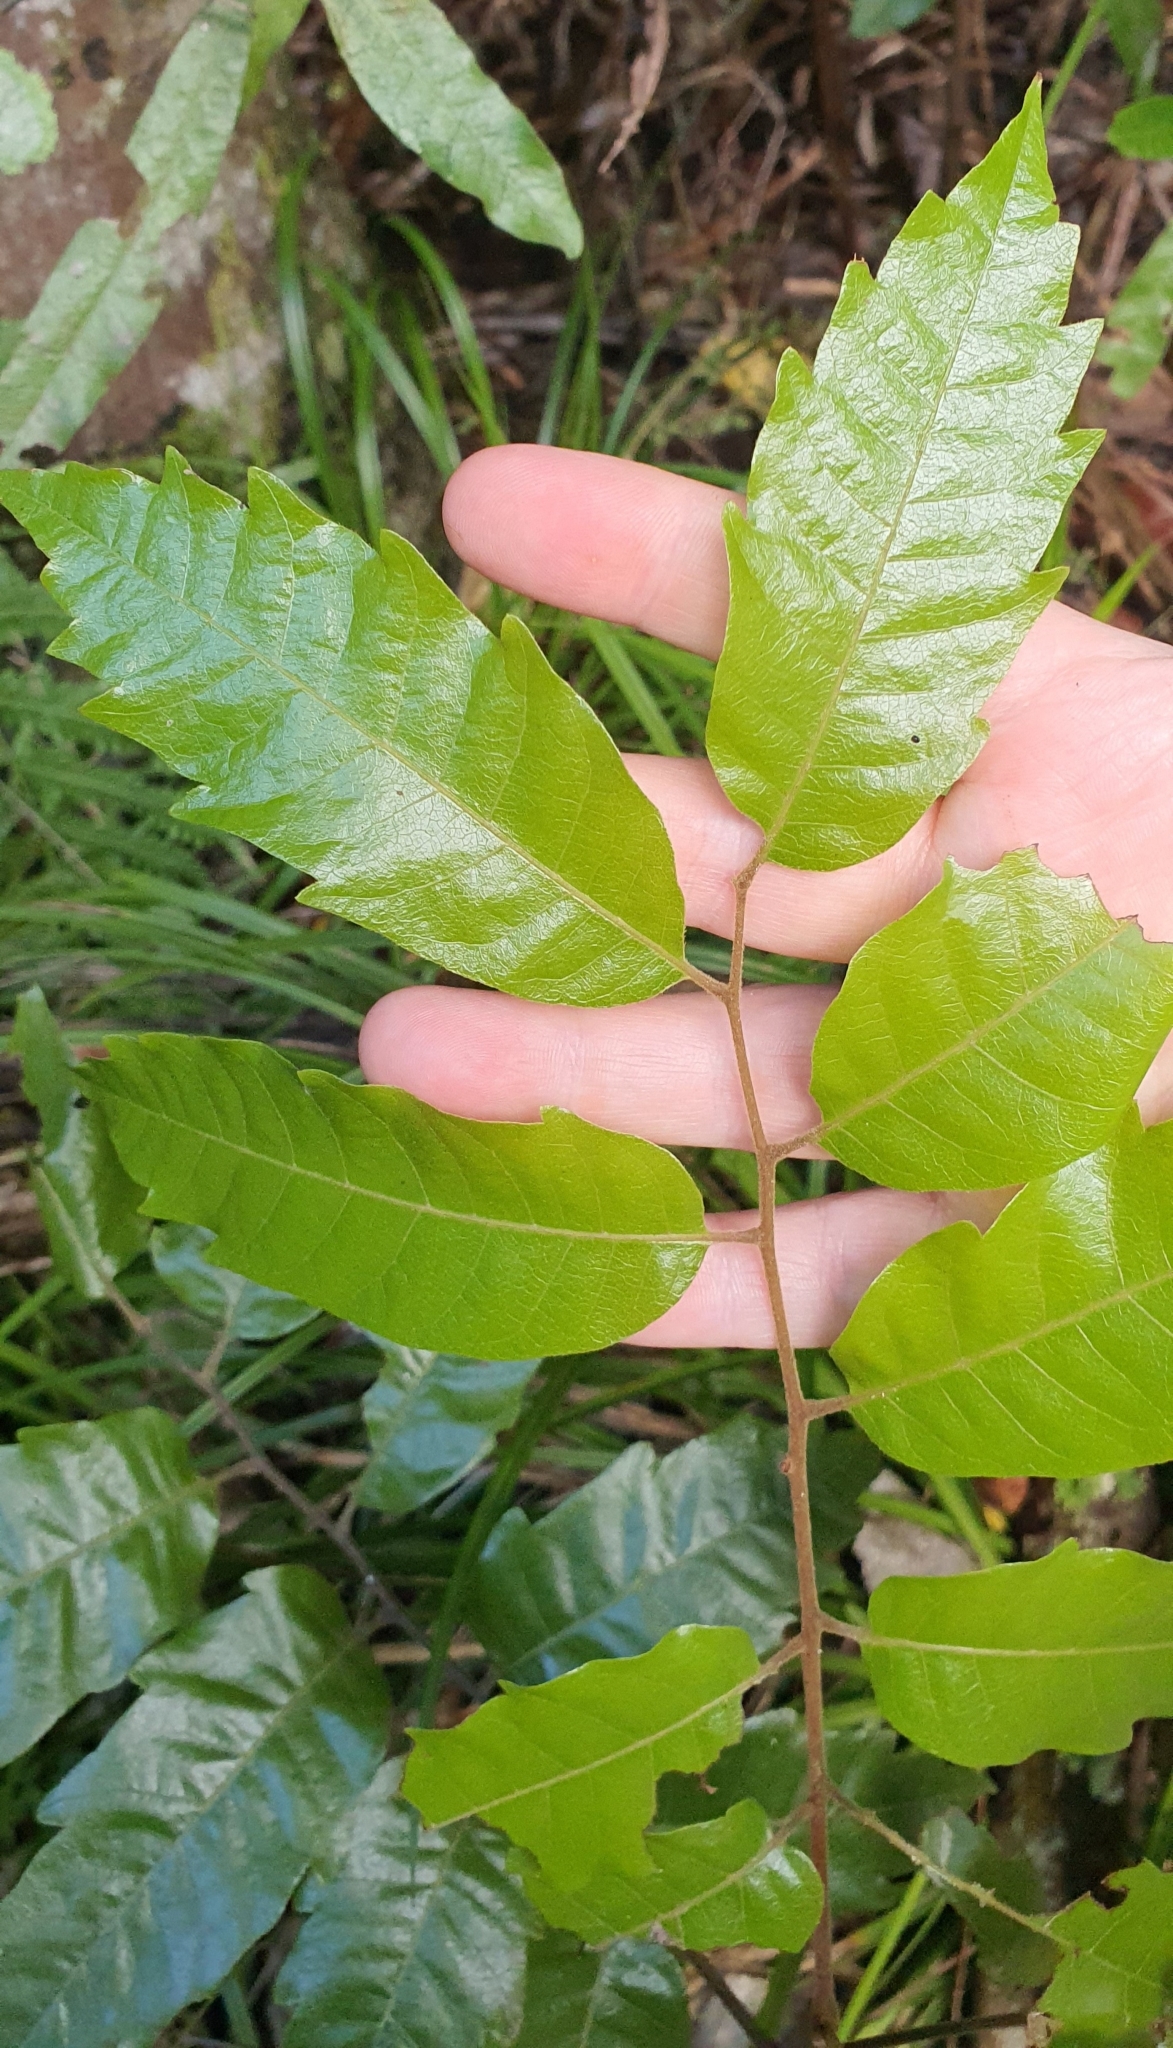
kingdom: Plantae
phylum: Tracheophyta
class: Magnoliopsida
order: Sapindales
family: Sapindaceae
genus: Alectryon
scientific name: Alectryon excelsus
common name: Three kings titoki
